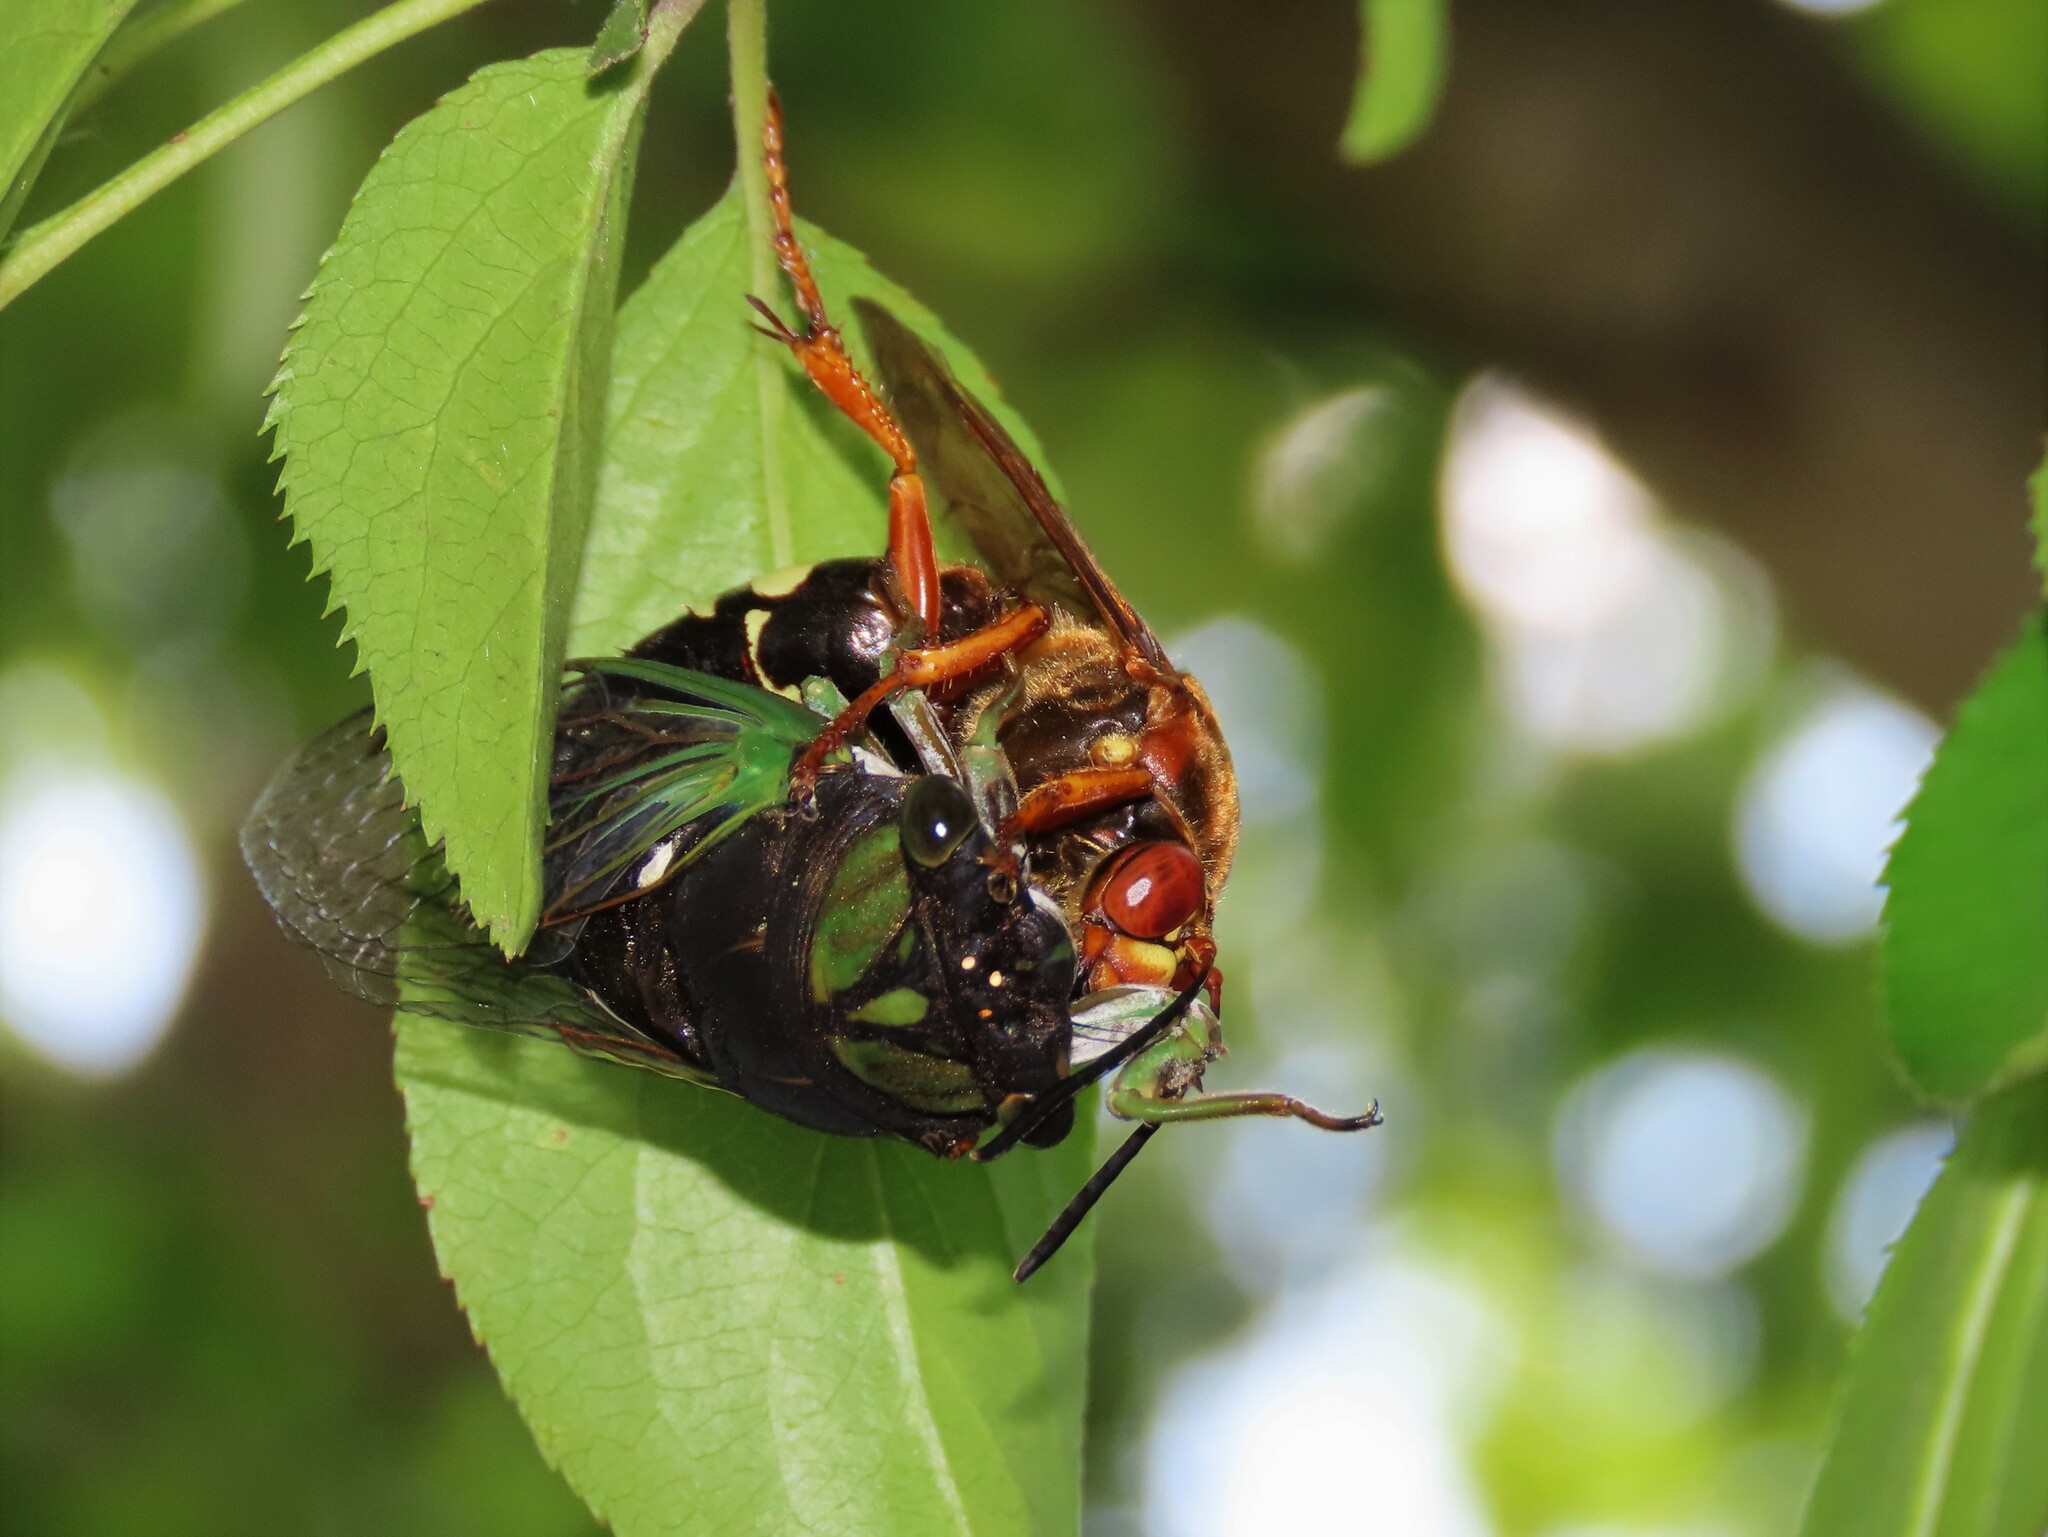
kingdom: Animalia
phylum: Arthropoda
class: Insecta
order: Hymenoptera
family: Crabronidae
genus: Sphecius
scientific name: Sphecius speciosus
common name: Cicada killer
